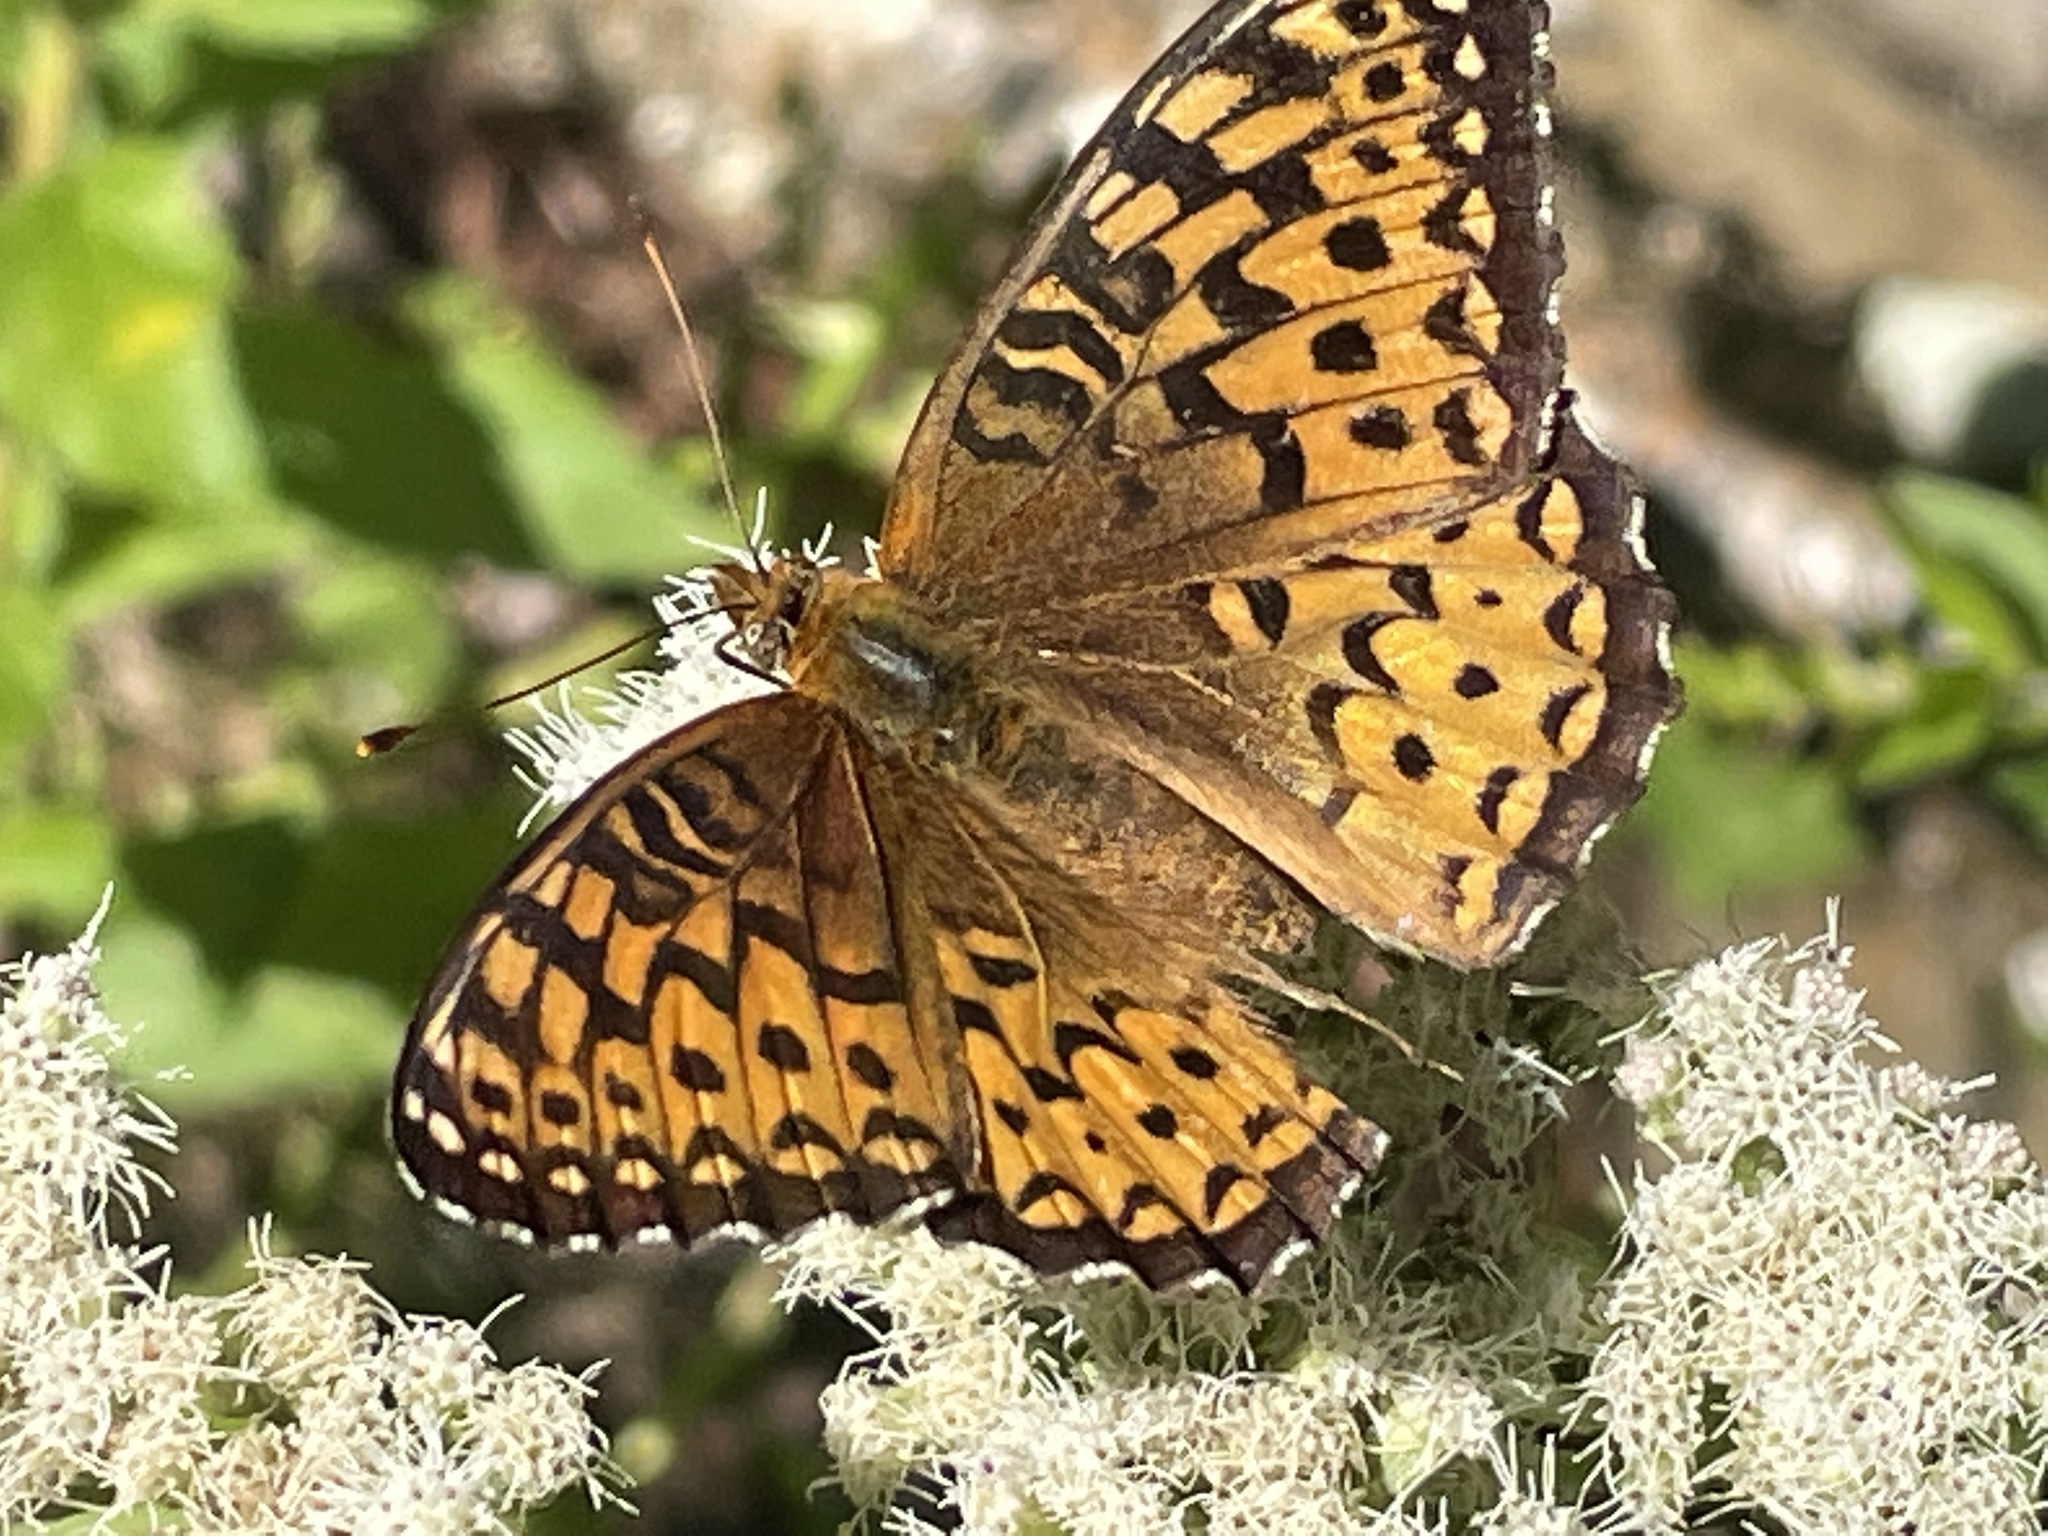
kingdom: Animalia
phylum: Arthropoda
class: Insecta
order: Lepidoptera
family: Nymphalidae
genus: Speyeria
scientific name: Speyeria atlantis
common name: Atlantis fritillary
